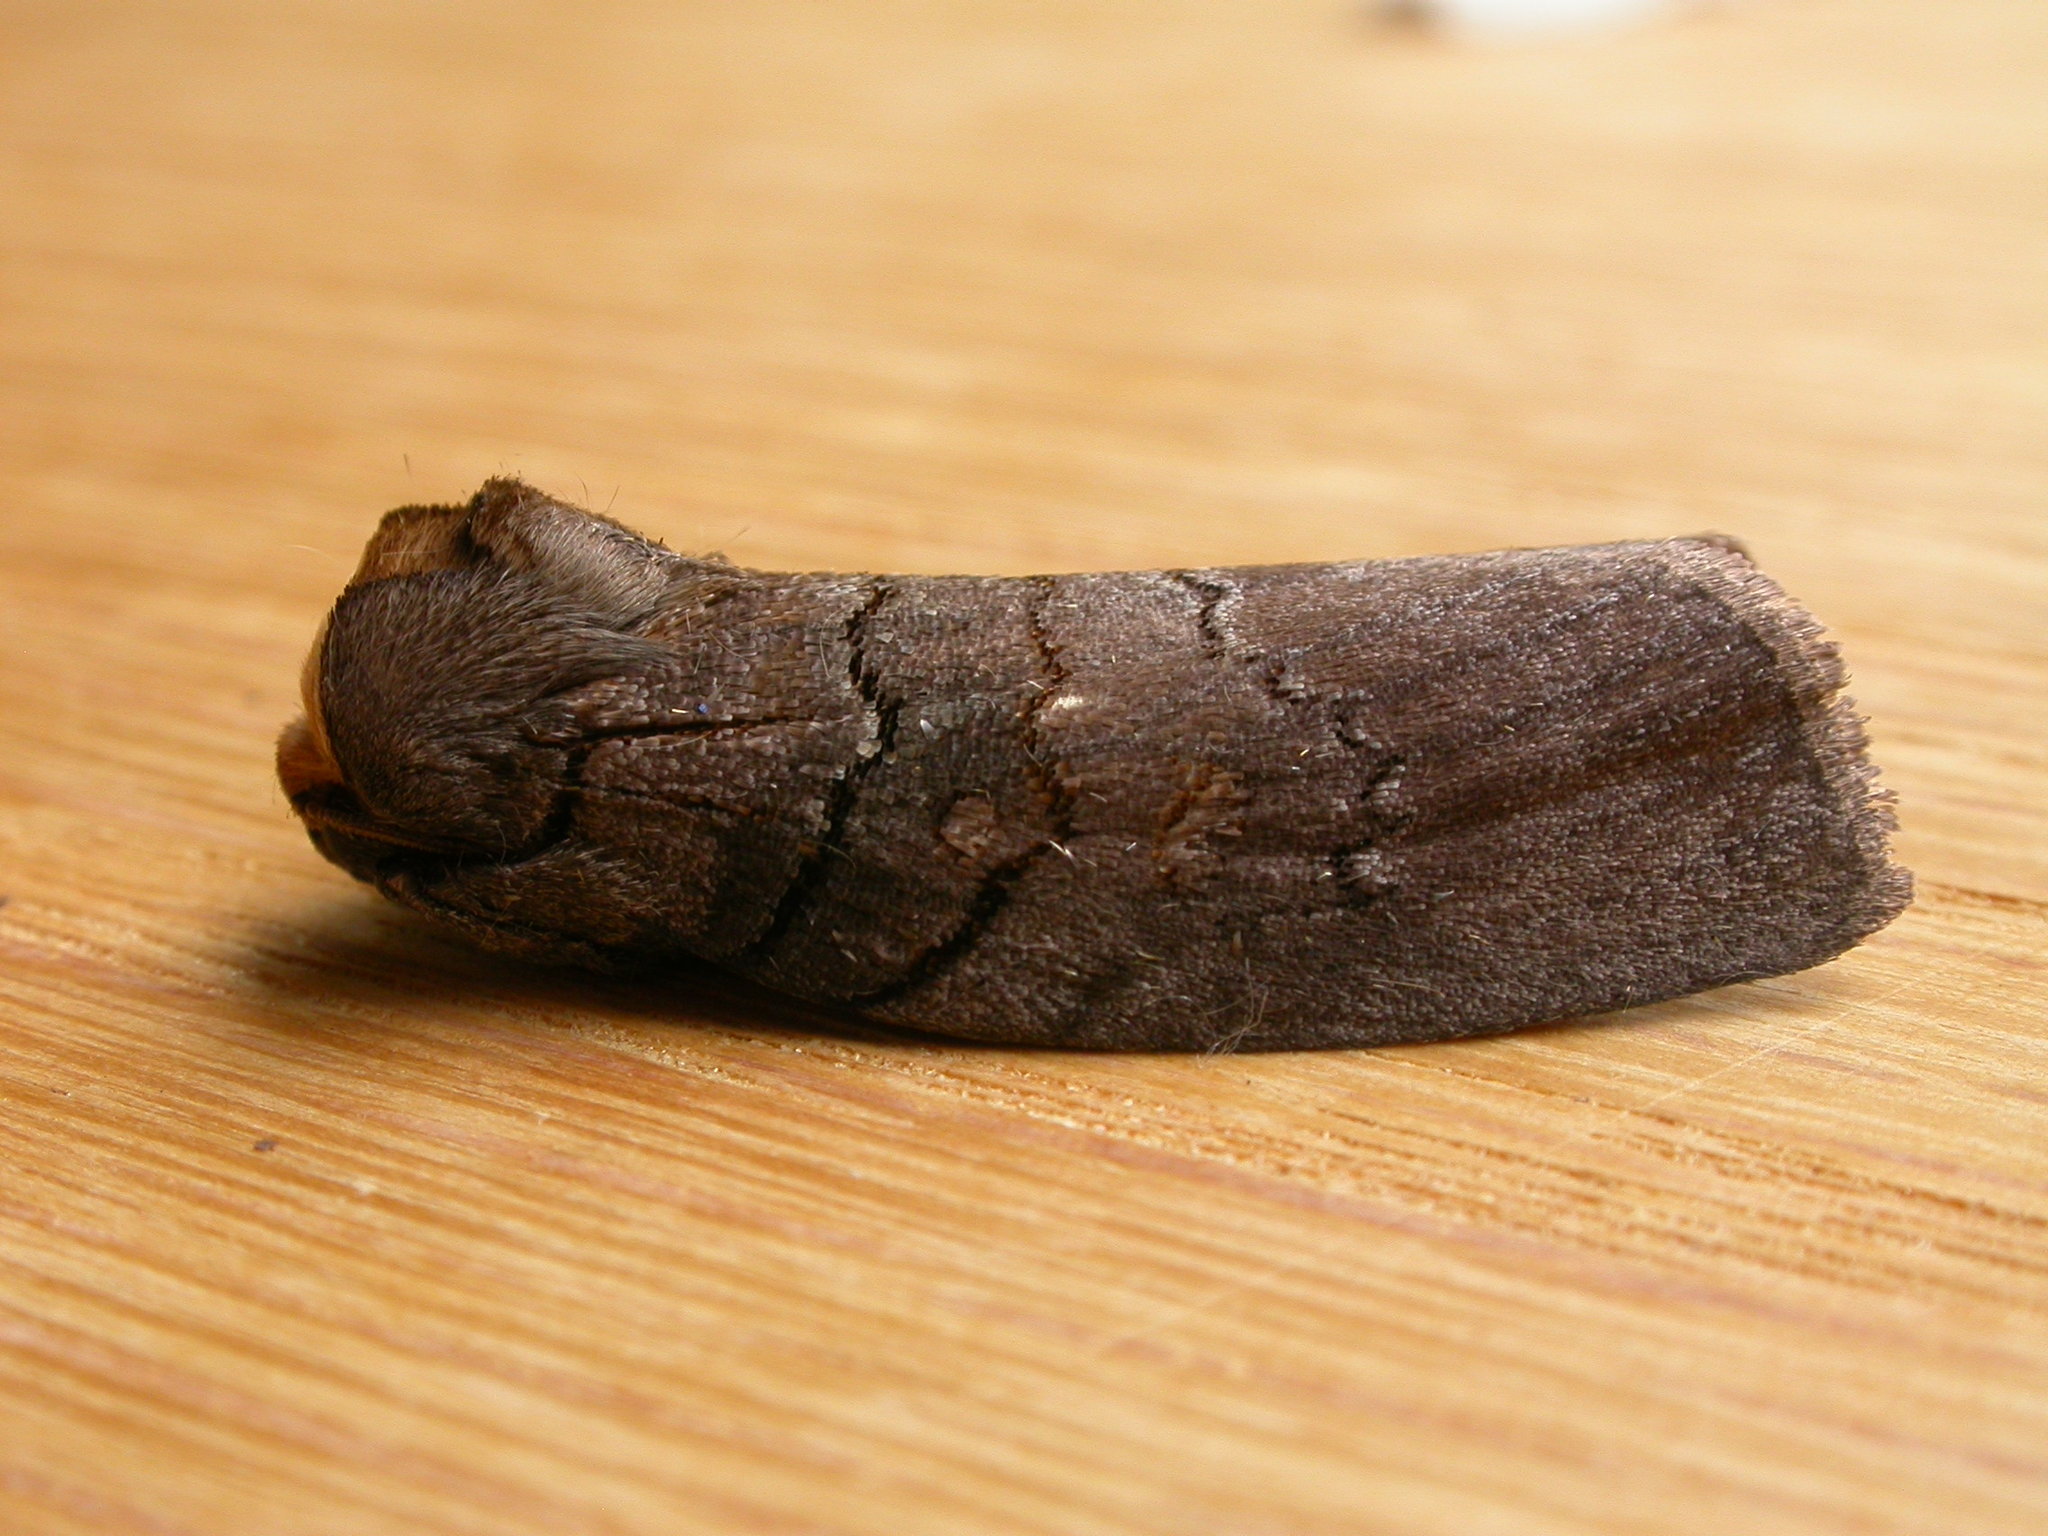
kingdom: Animalia
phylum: Arthropoda
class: Insecta
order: Lepidoptera
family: Oenosandridae
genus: Discophlebia
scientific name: Discophlebia lucasii
